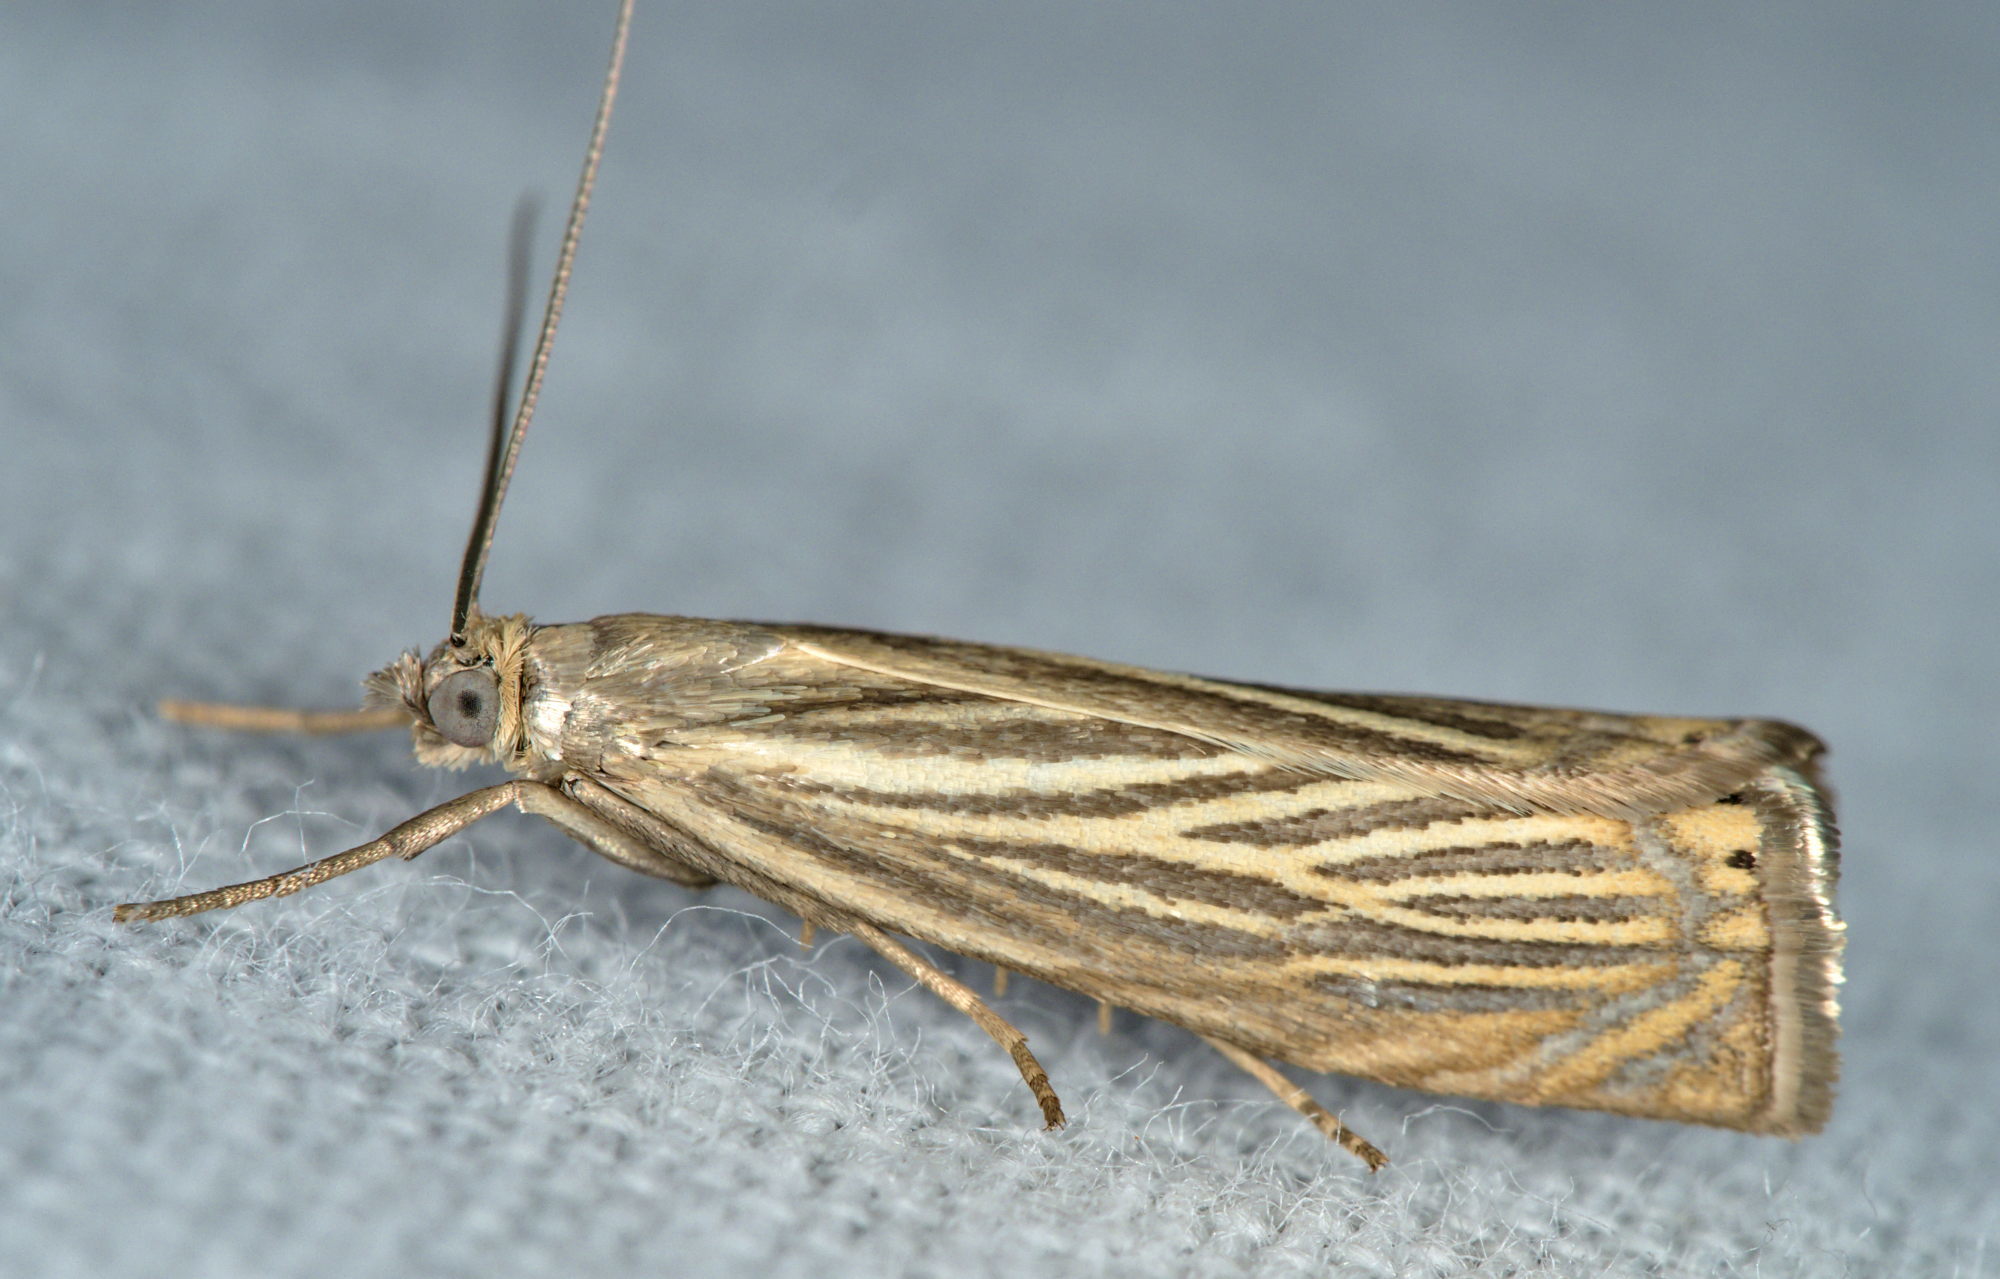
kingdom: Animalia
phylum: Arthropoda
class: Insecta
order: Lepidoptera
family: Crambidae
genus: Chrysoteuchia
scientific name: Chrysoteuchia culmella
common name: Garden grass-veneer
